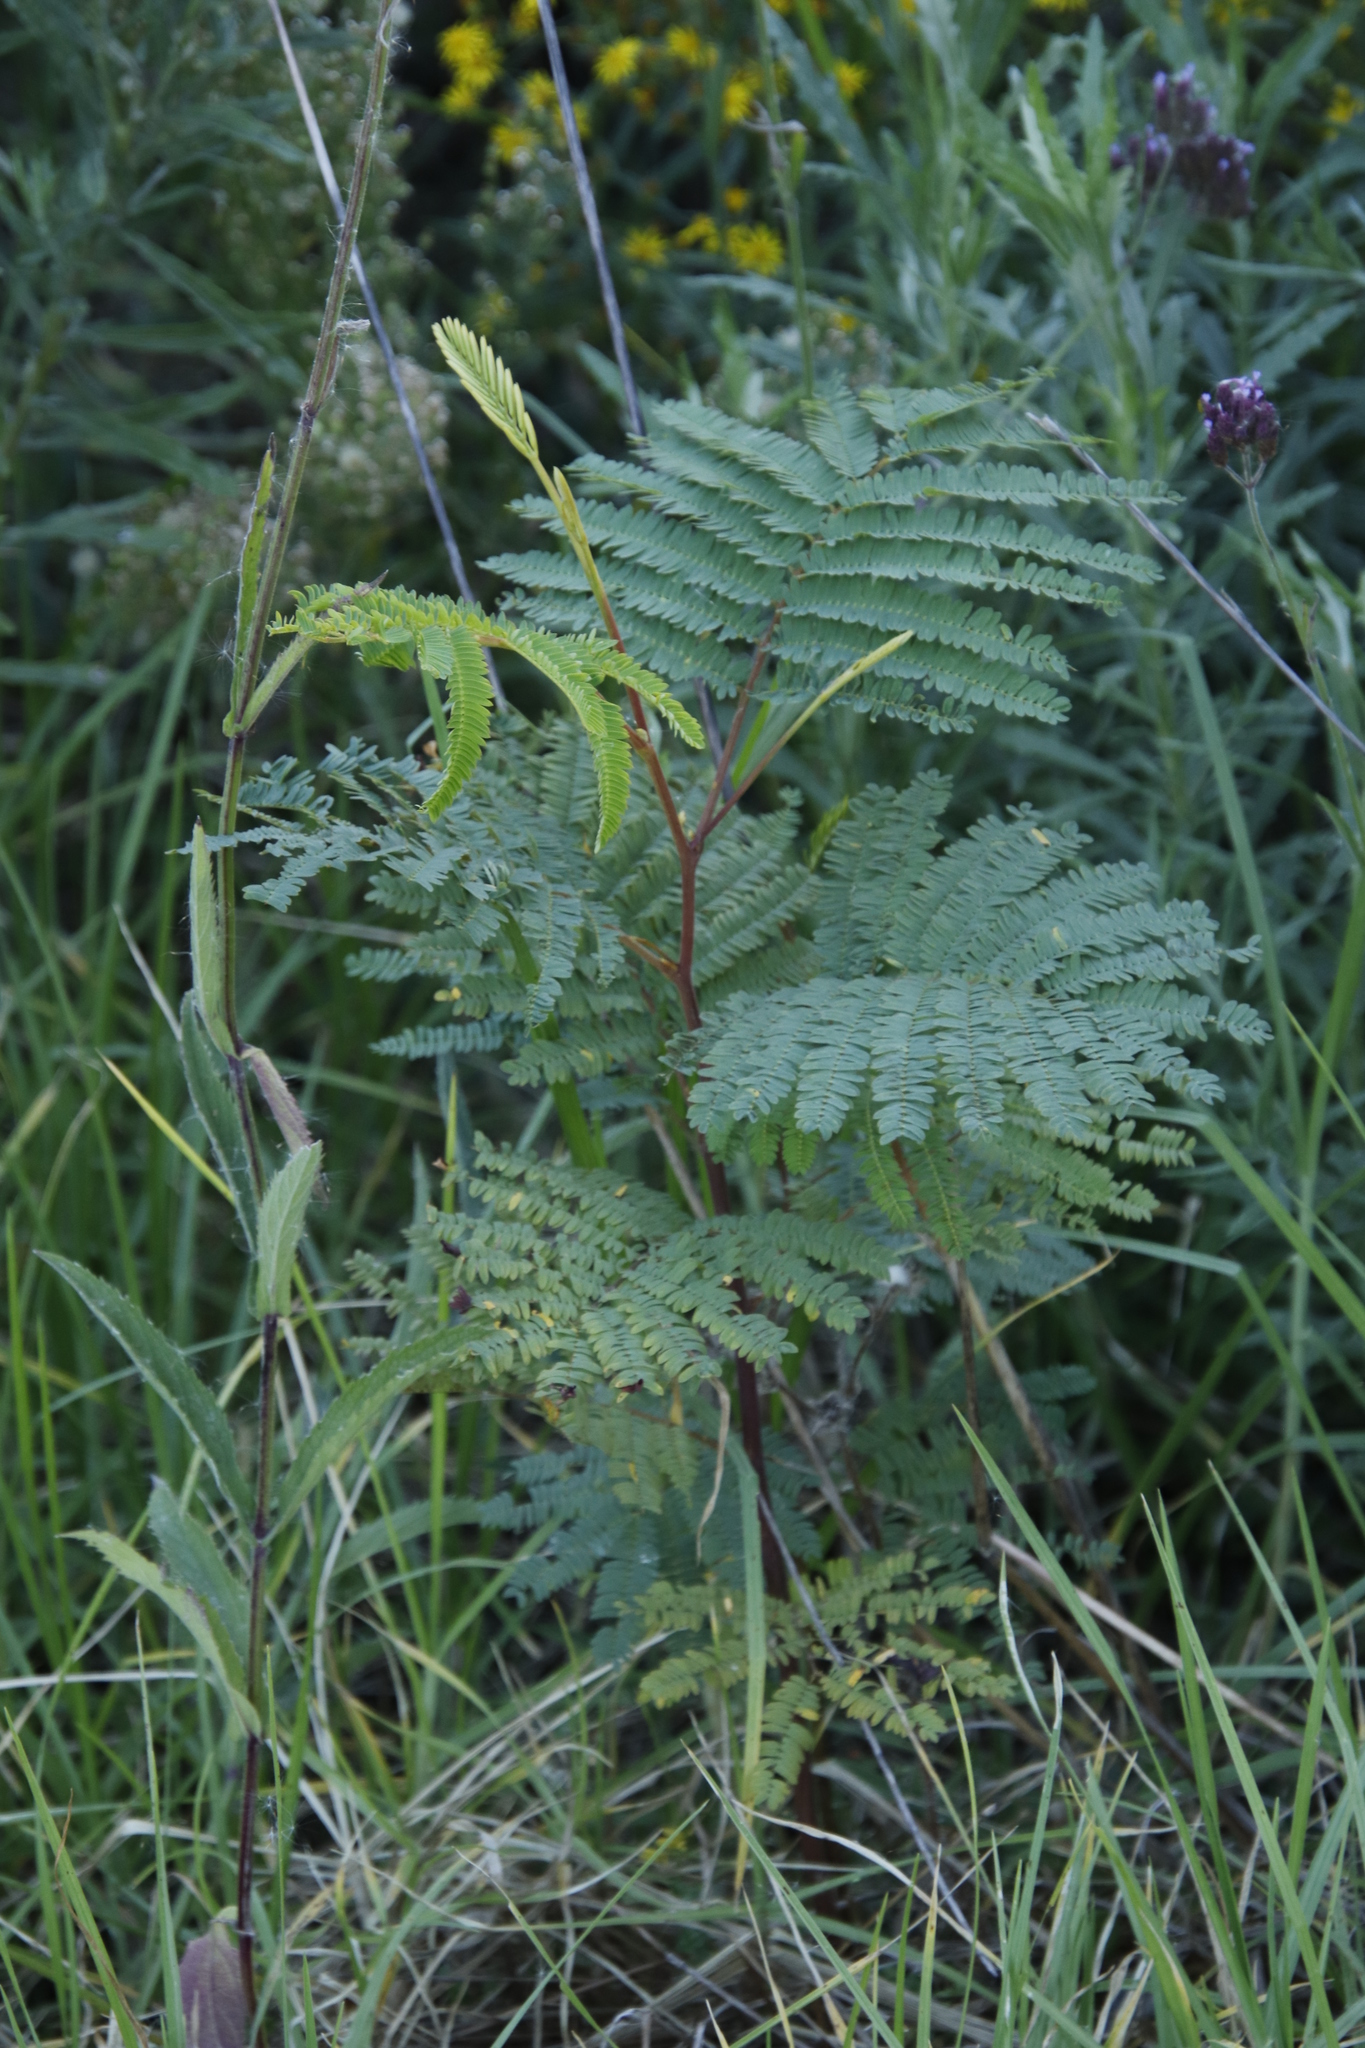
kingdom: Plantae
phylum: Tracheophyta
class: Magnoliopsida
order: Fabales
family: Fabaceae
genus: Paraserianthes
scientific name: Paraserianthes lophantha
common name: Plume albizia
